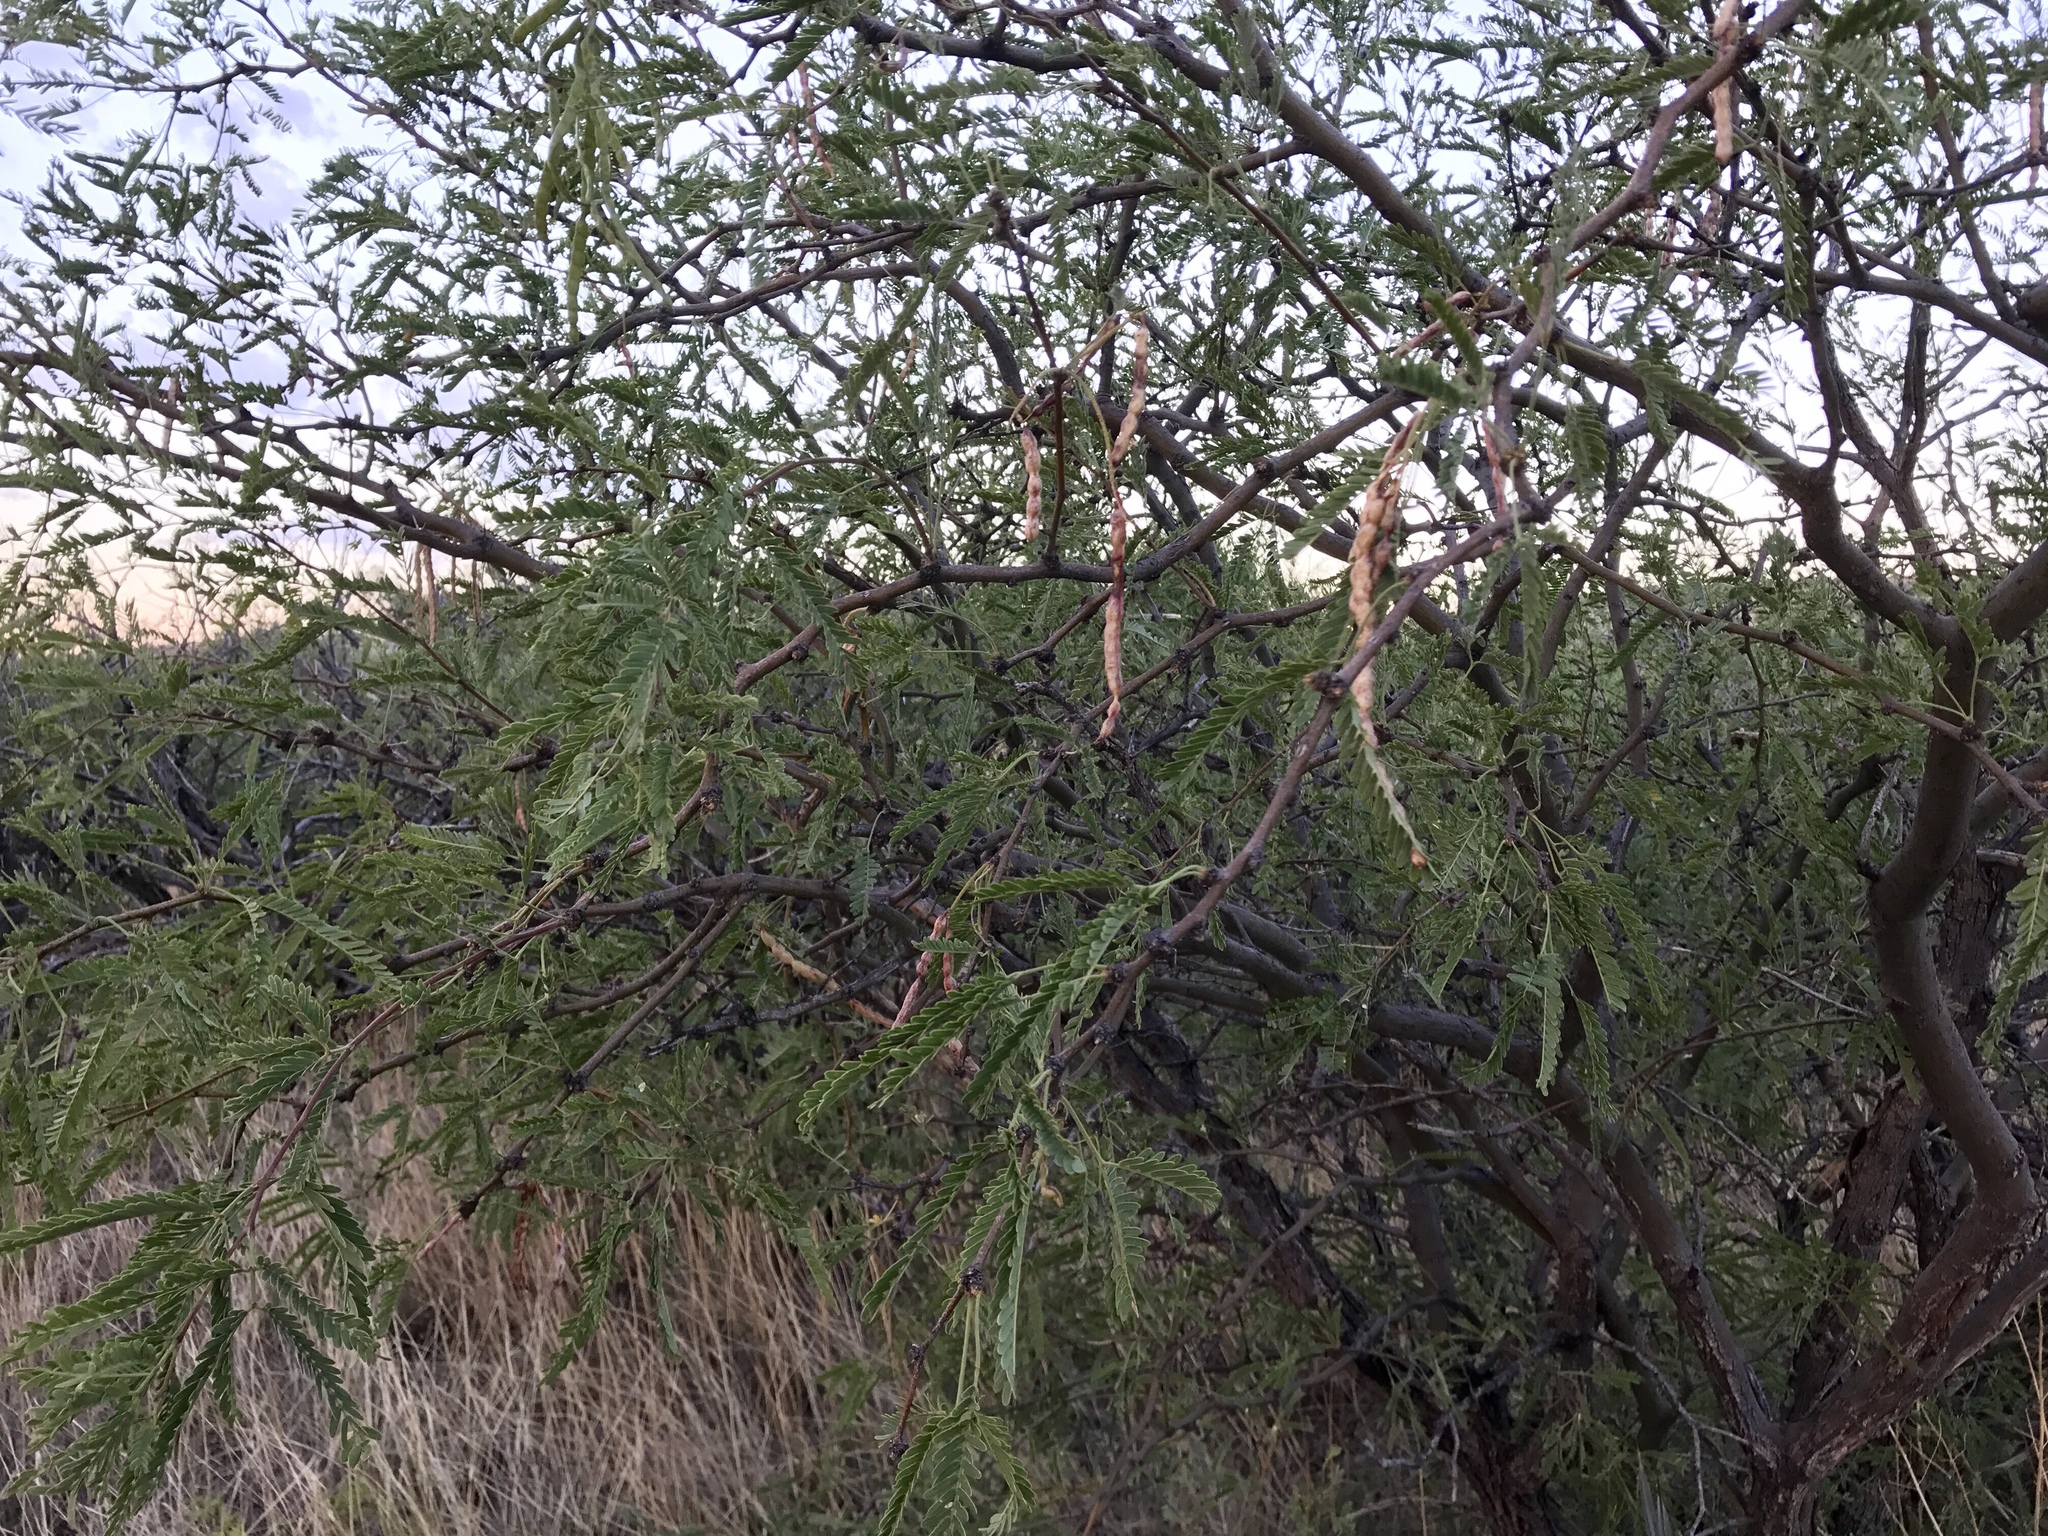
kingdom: Plantae
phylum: Tracheophyta
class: Magnoliopsida
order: Fabales
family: Fabaceae
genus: Prosopis
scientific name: Prosopis velutina
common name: Velvet mesquite
